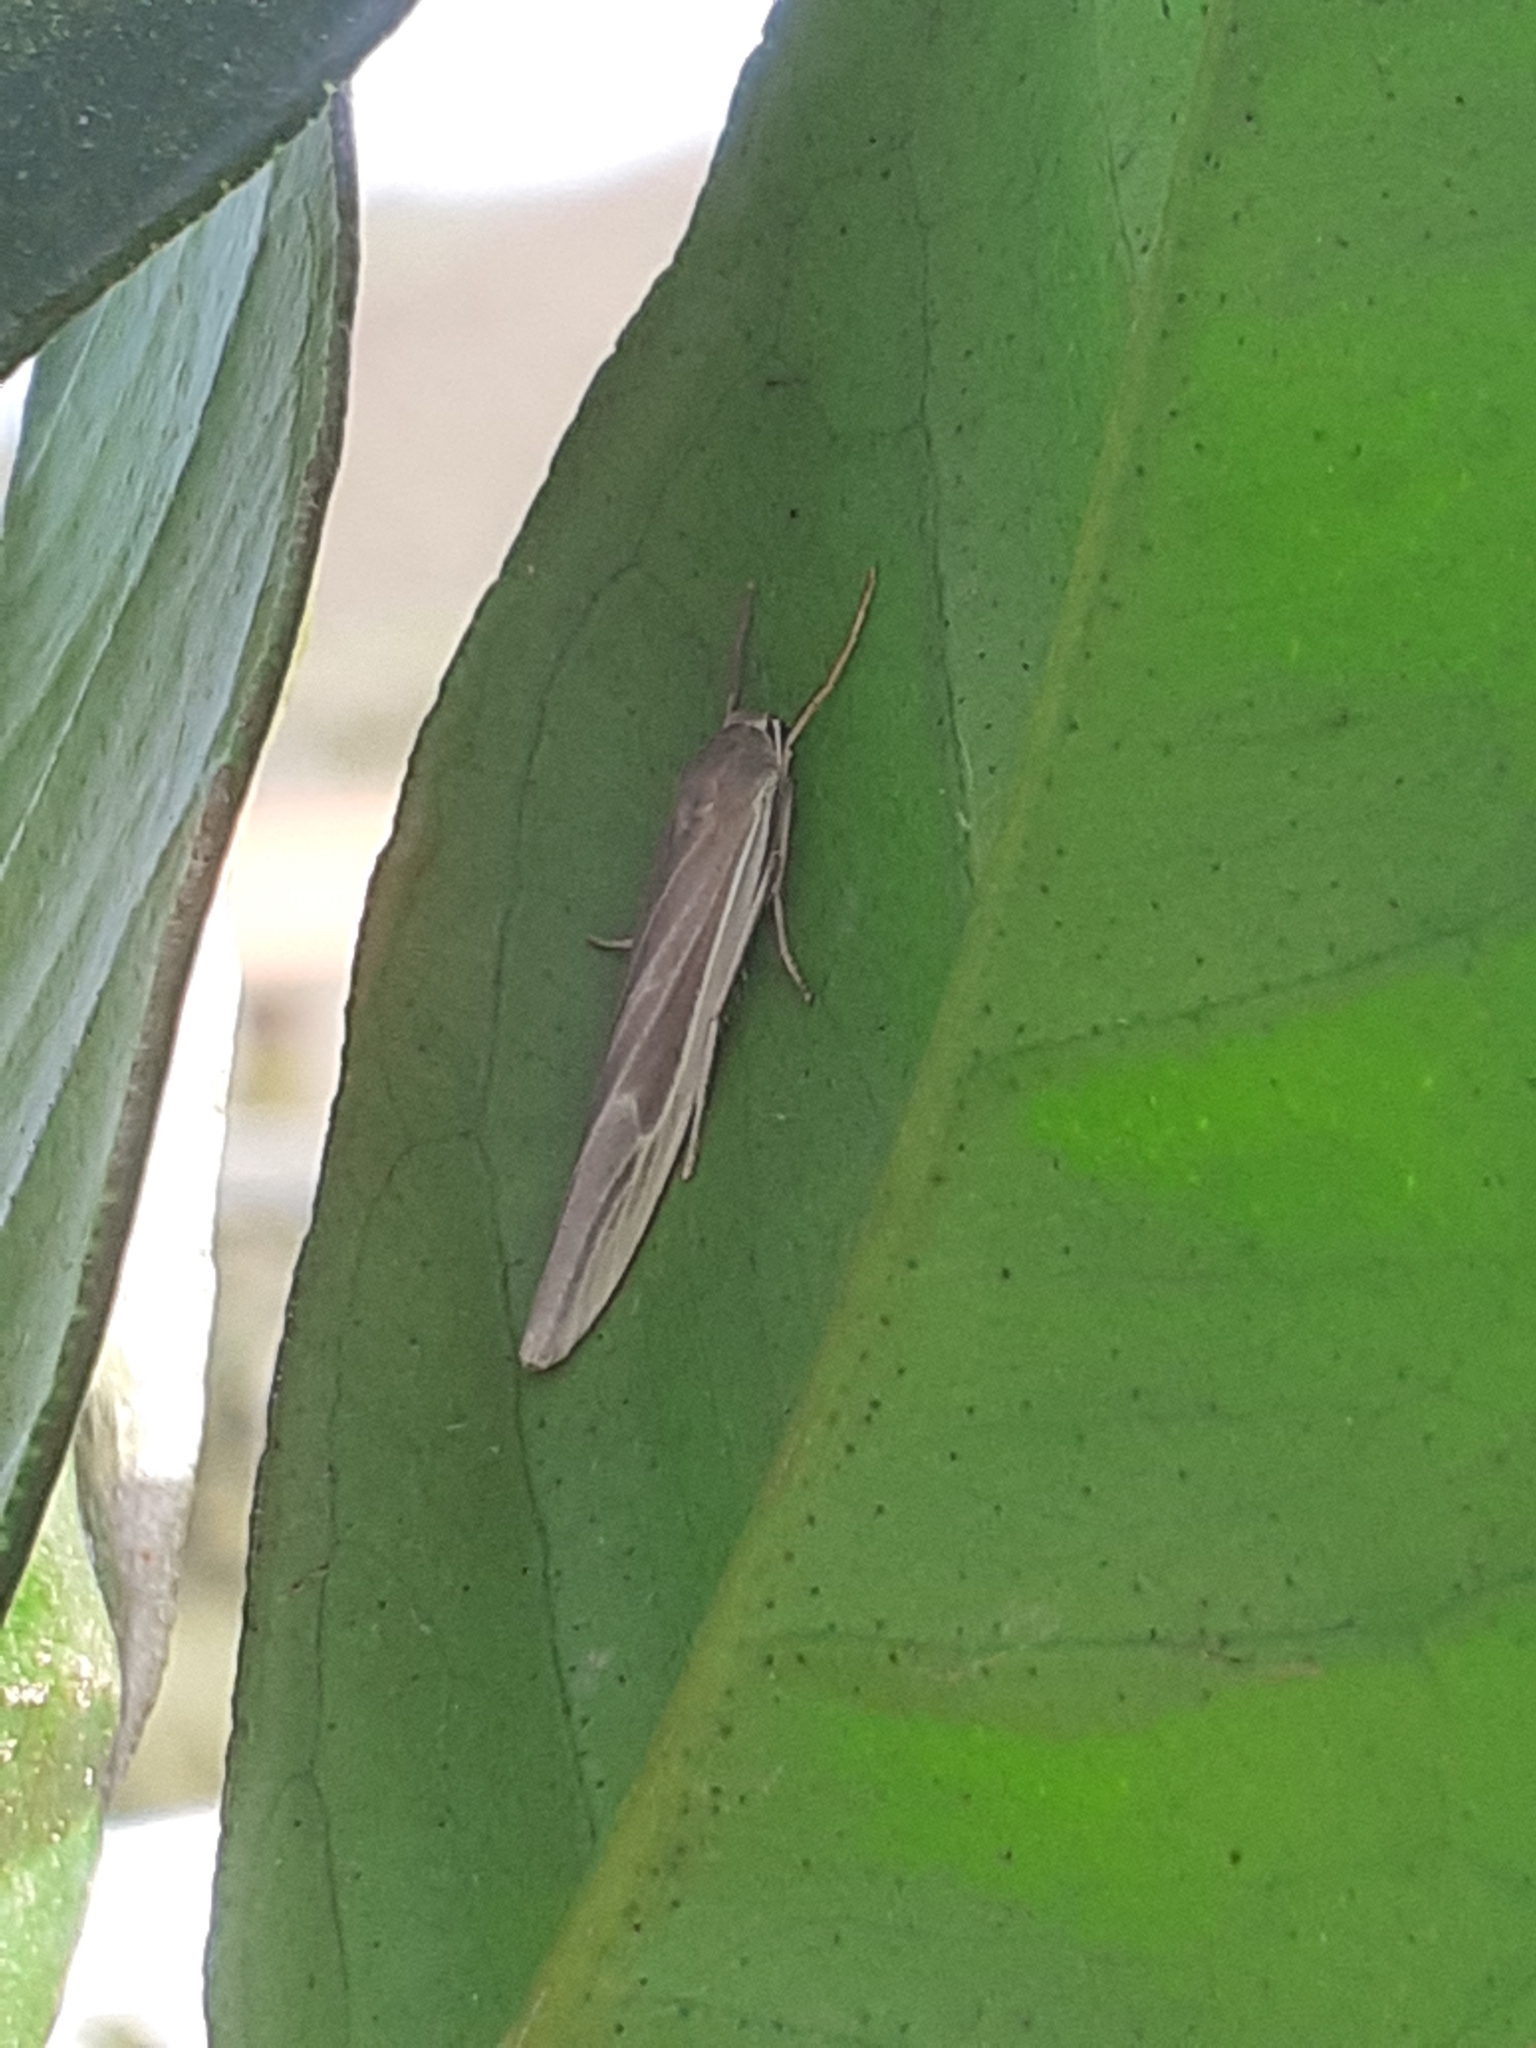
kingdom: Animalia
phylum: Arthropoda
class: Insecta
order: Lepidoptera
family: Erebidae
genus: Indalia
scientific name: Indalia albicosta
